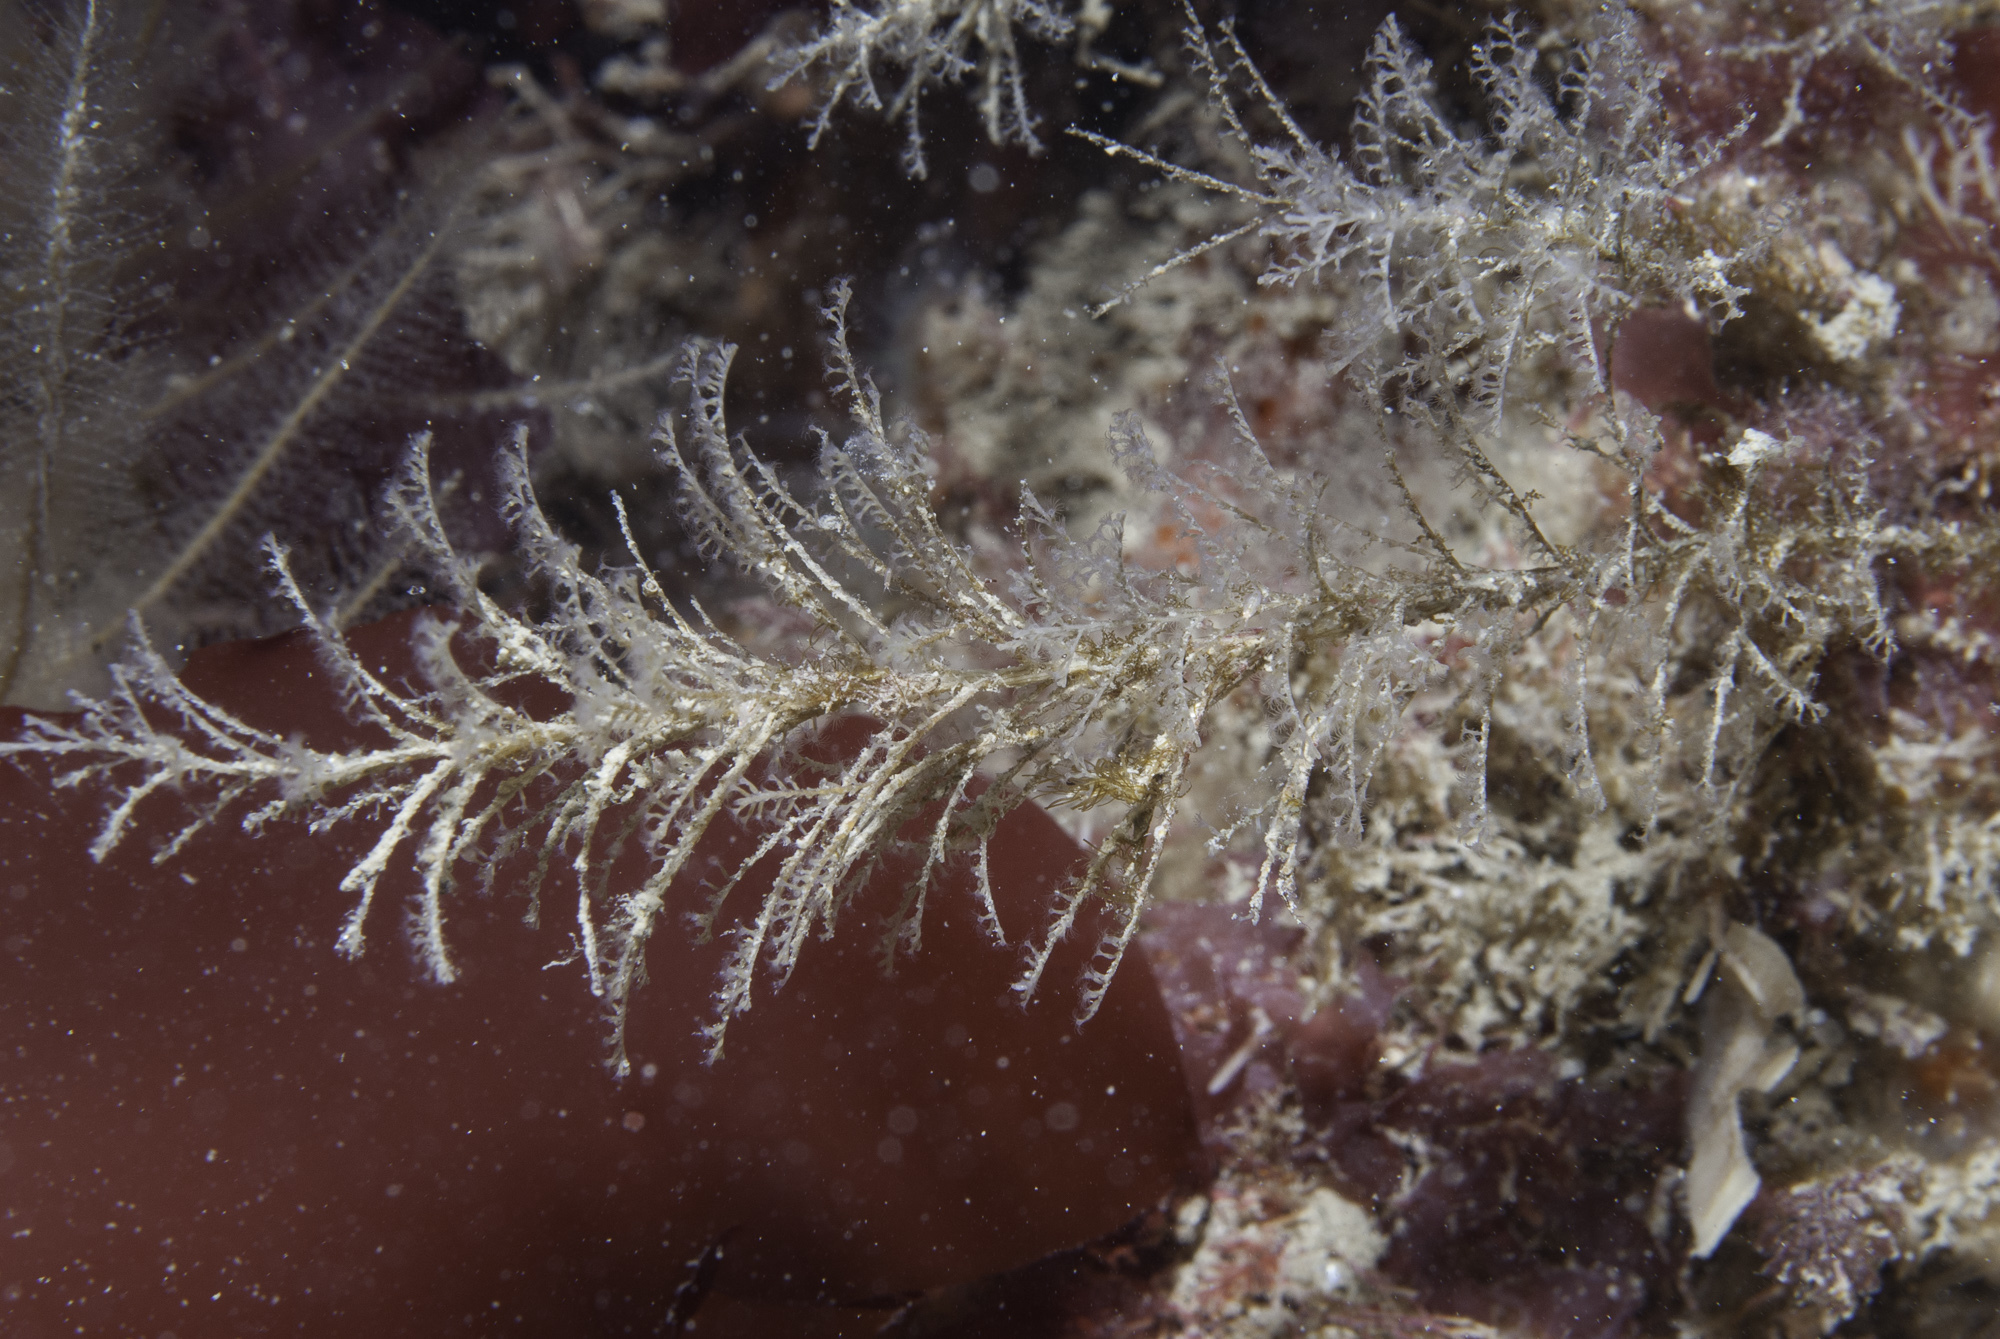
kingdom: Animalia
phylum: Cnidaria
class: Hydrozoa
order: Leptothecata
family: Haleciidae
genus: Halecium
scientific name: Halecium plumosum
